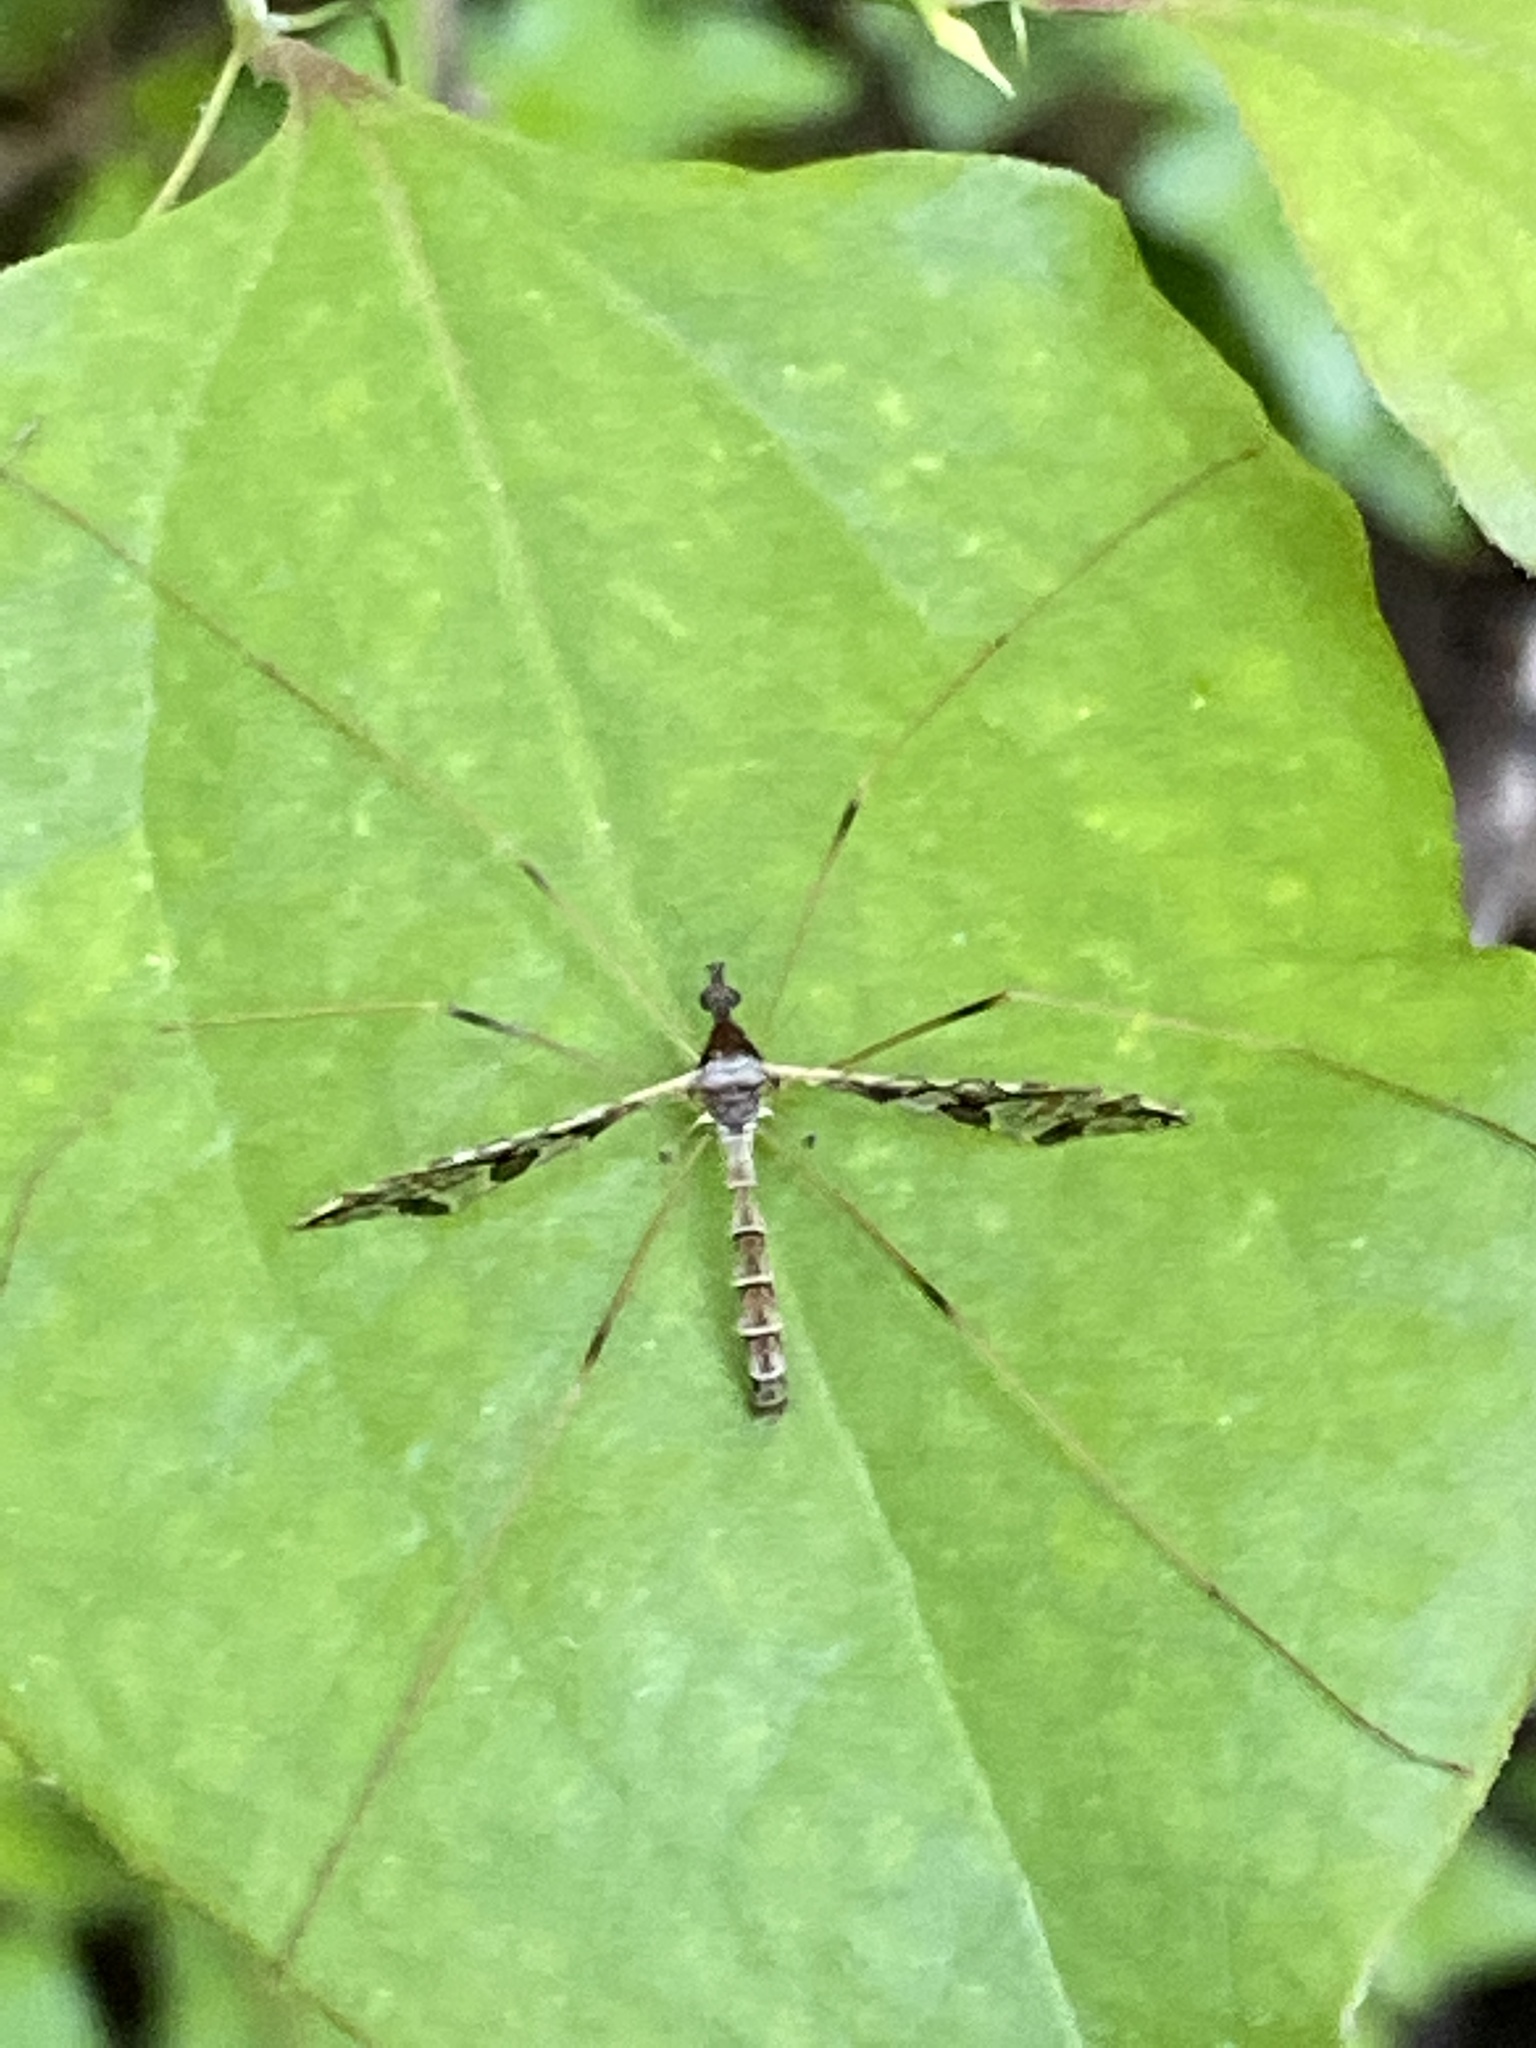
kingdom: Animalia
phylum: Arthropoda
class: Insecta
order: Diptera
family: Limoniidae
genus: Epiphragma
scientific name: Epiphragma solatrix
